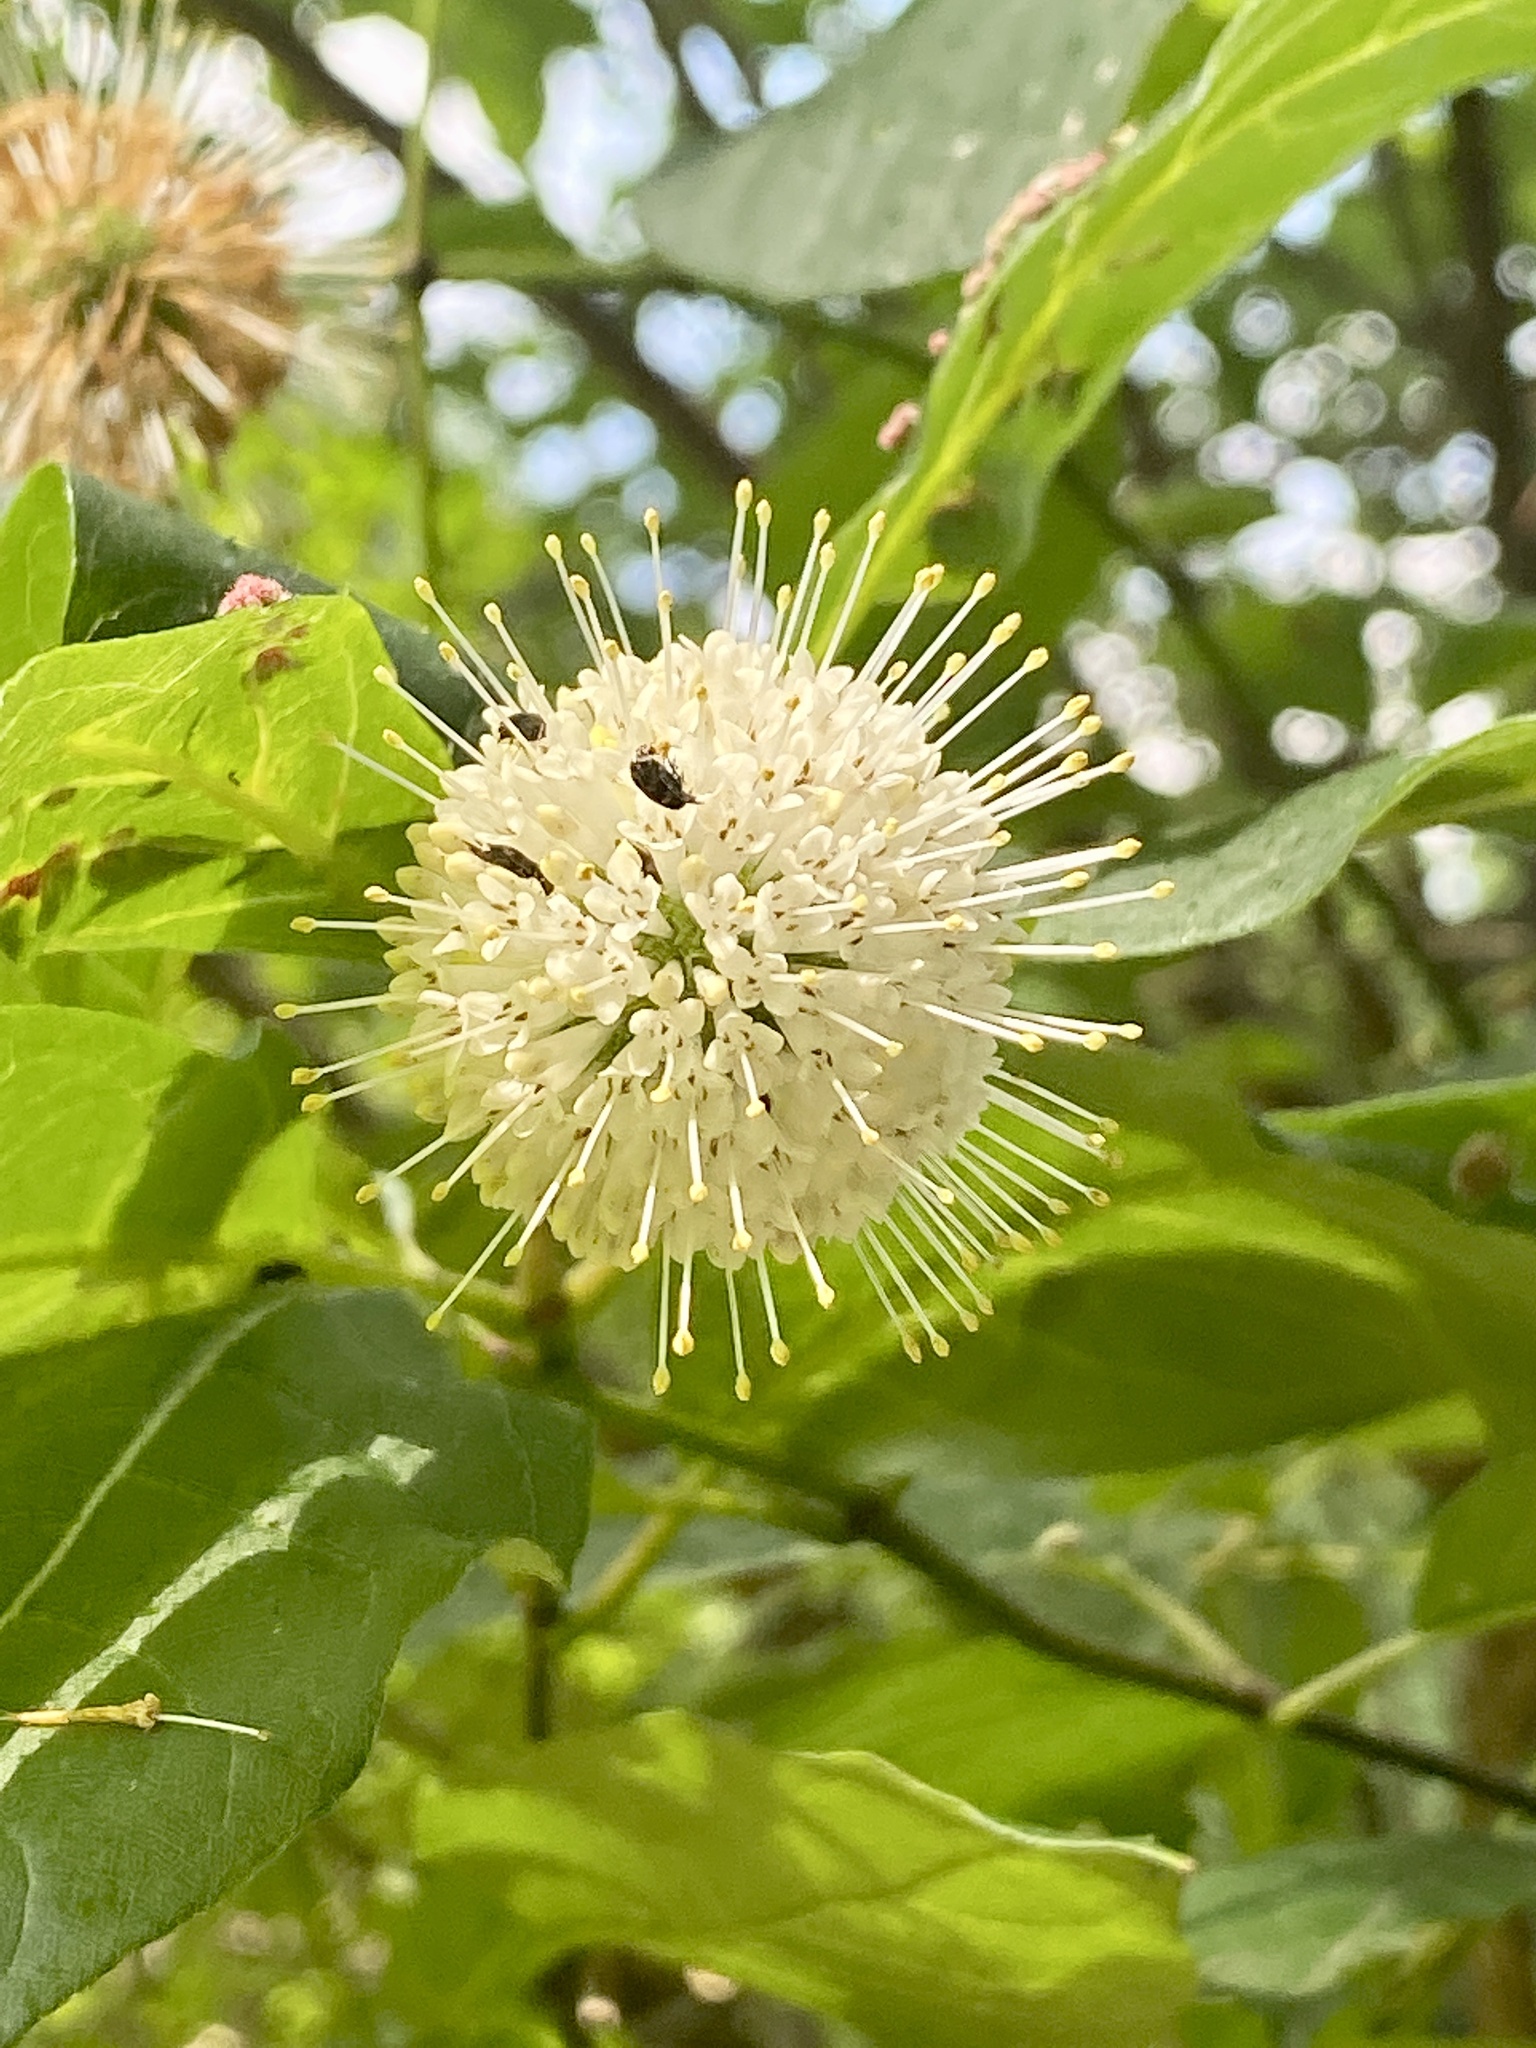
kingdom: Plantae
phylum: Tracheophyta
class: Magnoliopsida
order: Gentianales
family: Rubiaceae
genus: Cephalanthus
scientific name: Cephalanthus occidentalis
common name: Button-willow
